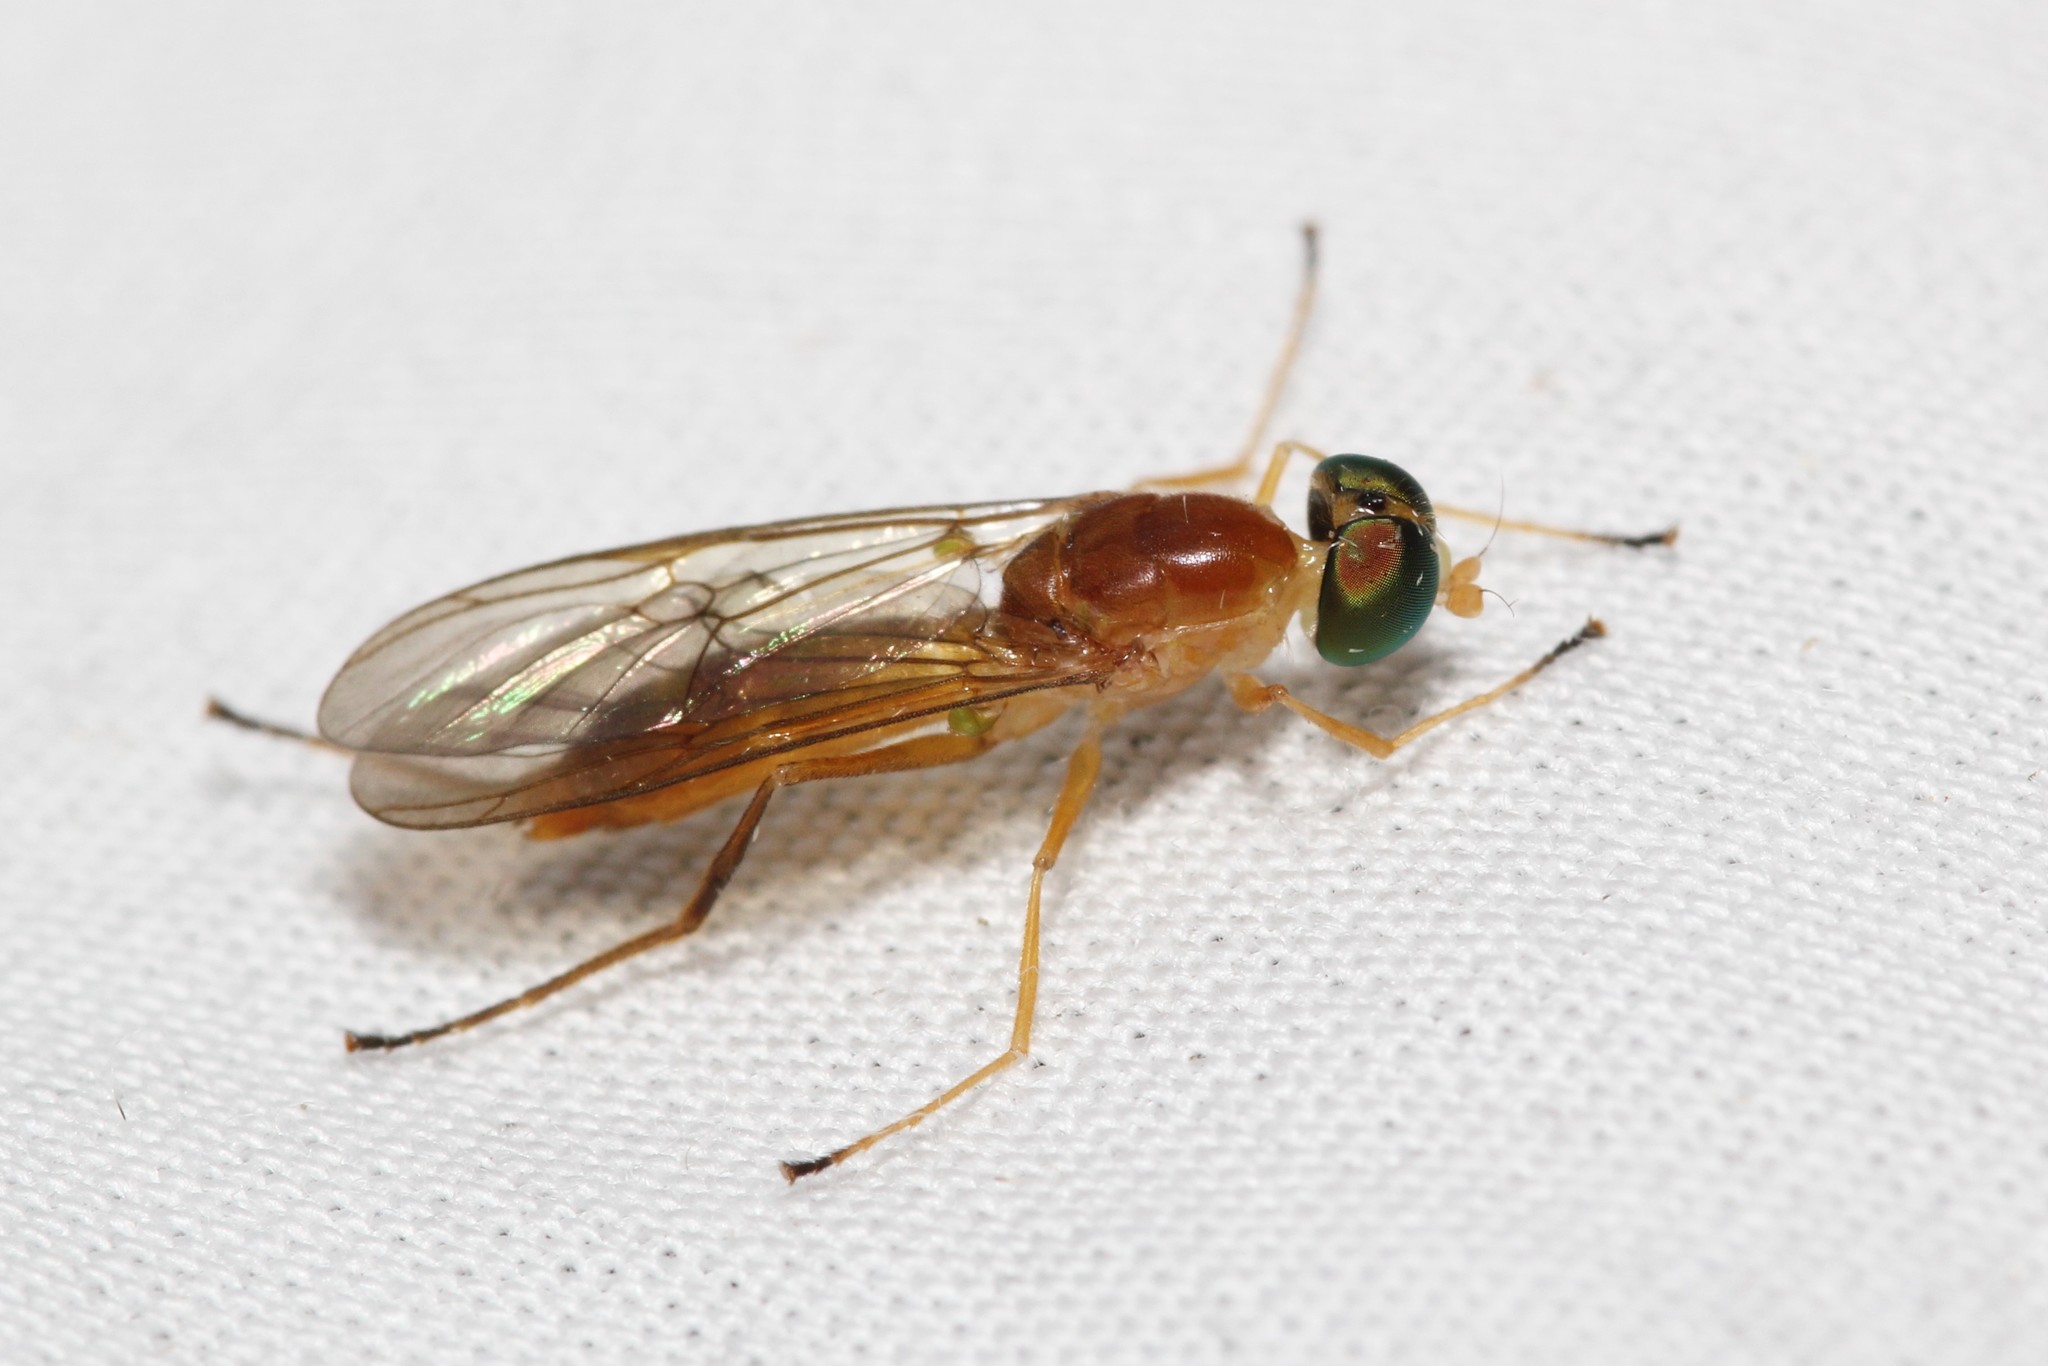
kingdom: Animalia
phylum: Arthropoda
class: Insecta
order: Diptera
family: Stratiomyidae
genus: Ptecticus
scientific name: Ptecticus trivittatus
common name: Compost fly
